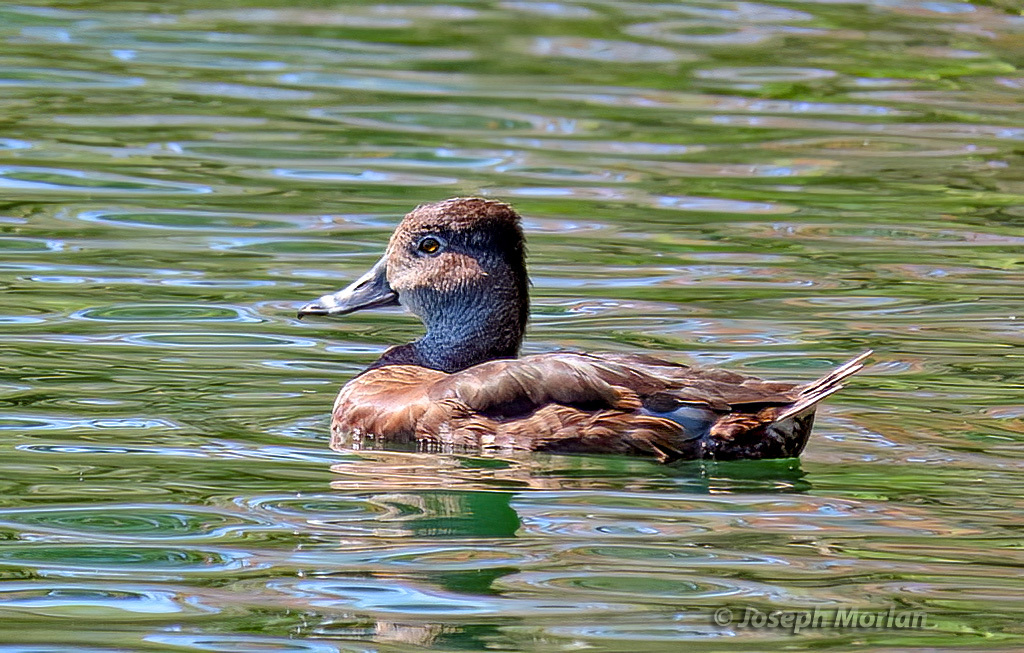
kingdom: Animalia
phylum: Chordata
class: Aves
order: Anseriformes
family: Anatidae
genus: Aythya
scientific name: Aythya collaris
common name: Ring-necked duck
